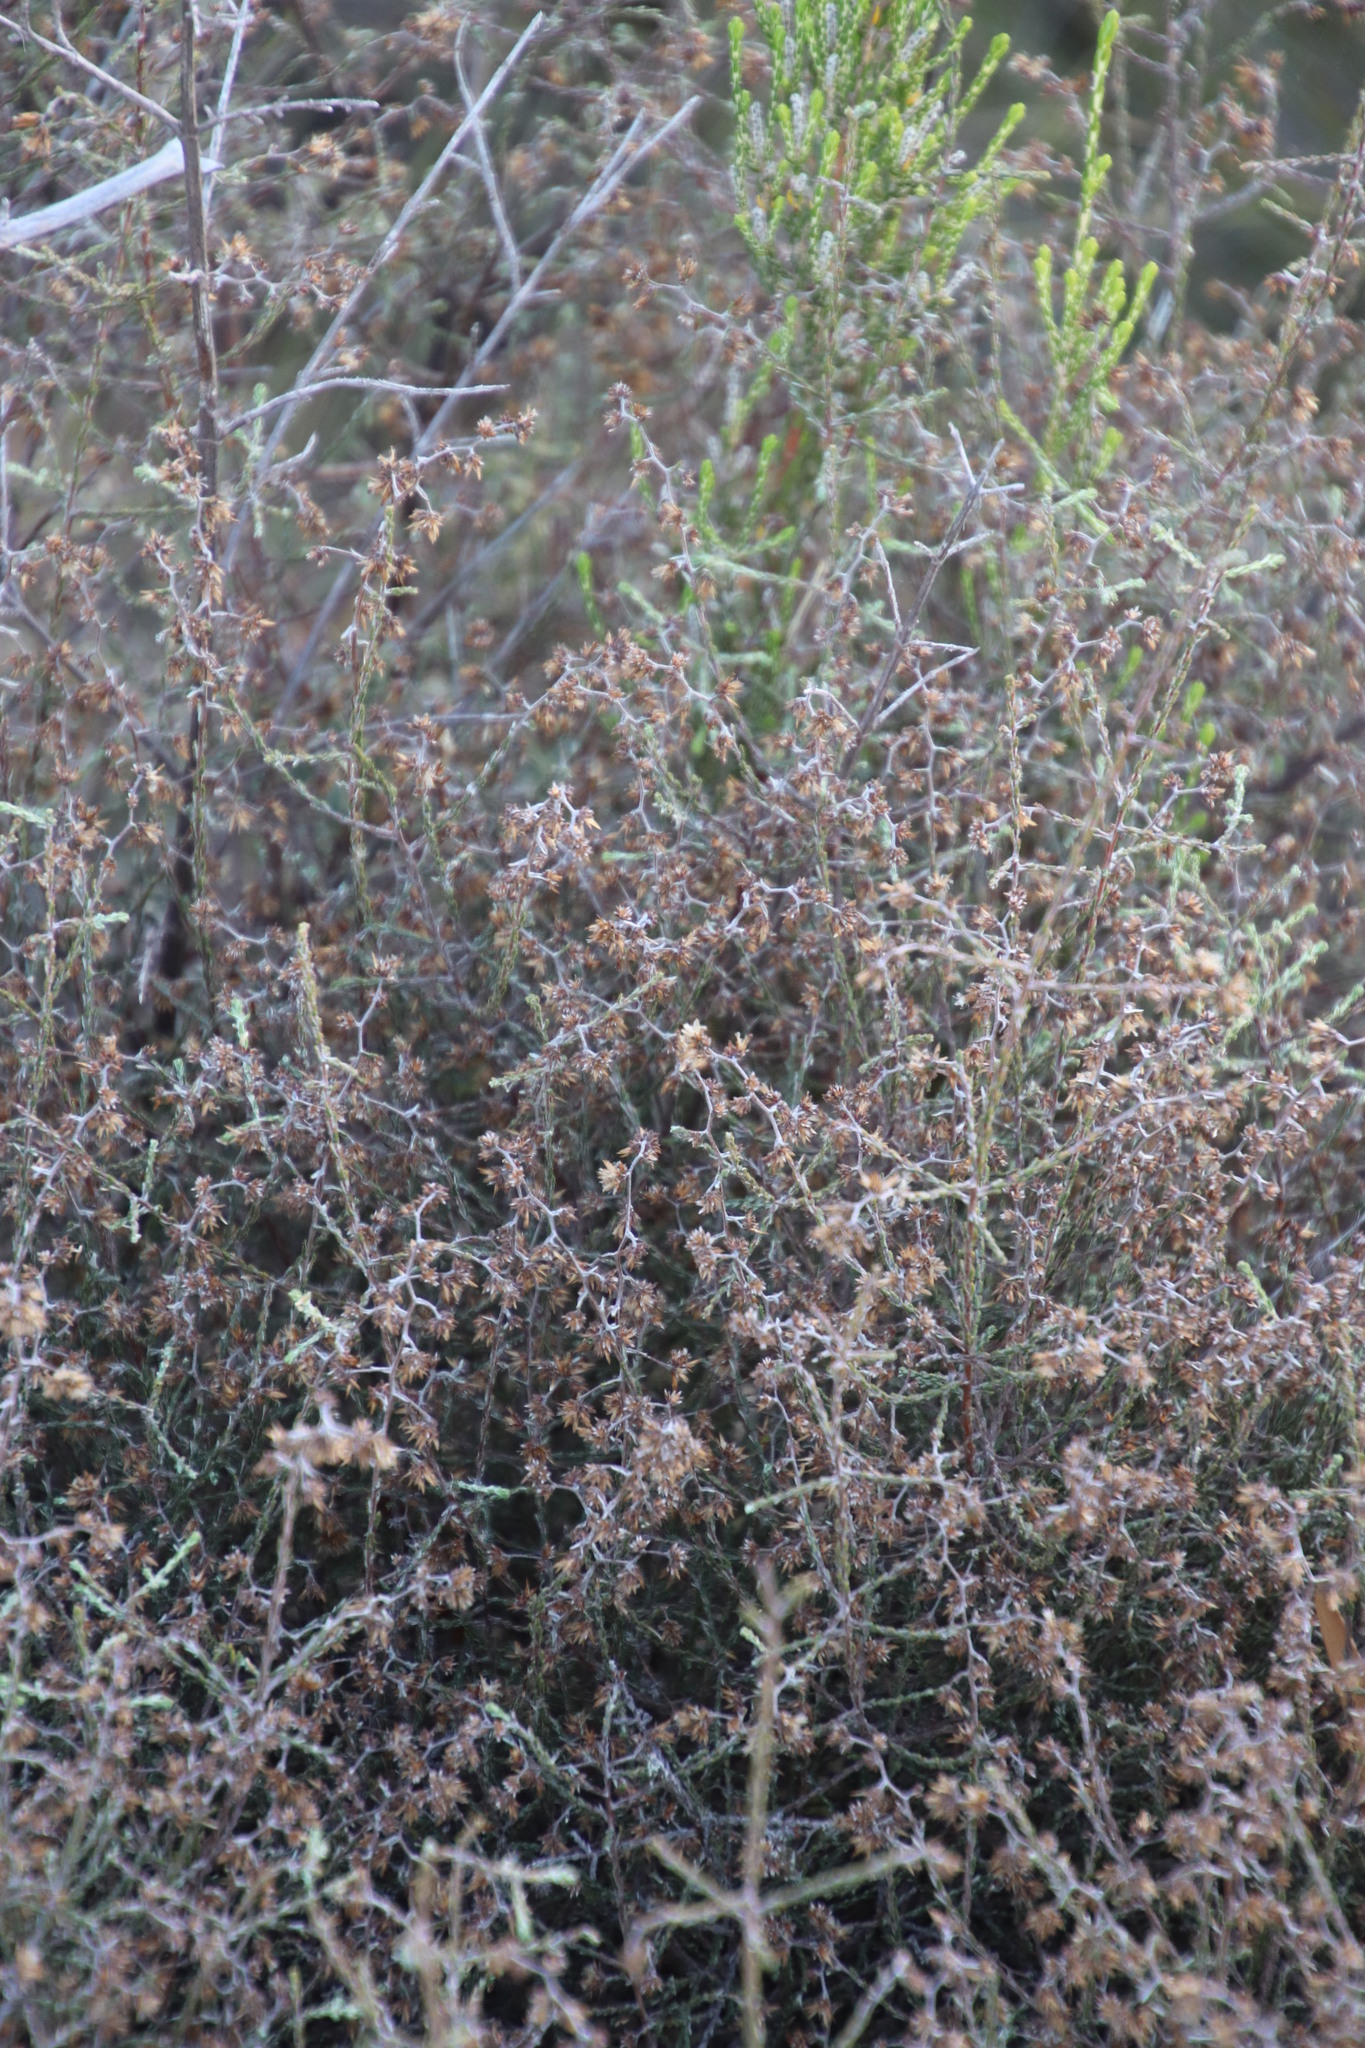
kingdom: Plantae
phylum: Tracheophyta
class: Magnoliopsida
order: Asterales
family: Asteraceae
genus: Myrovernix
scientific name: Myrovernix scaber
